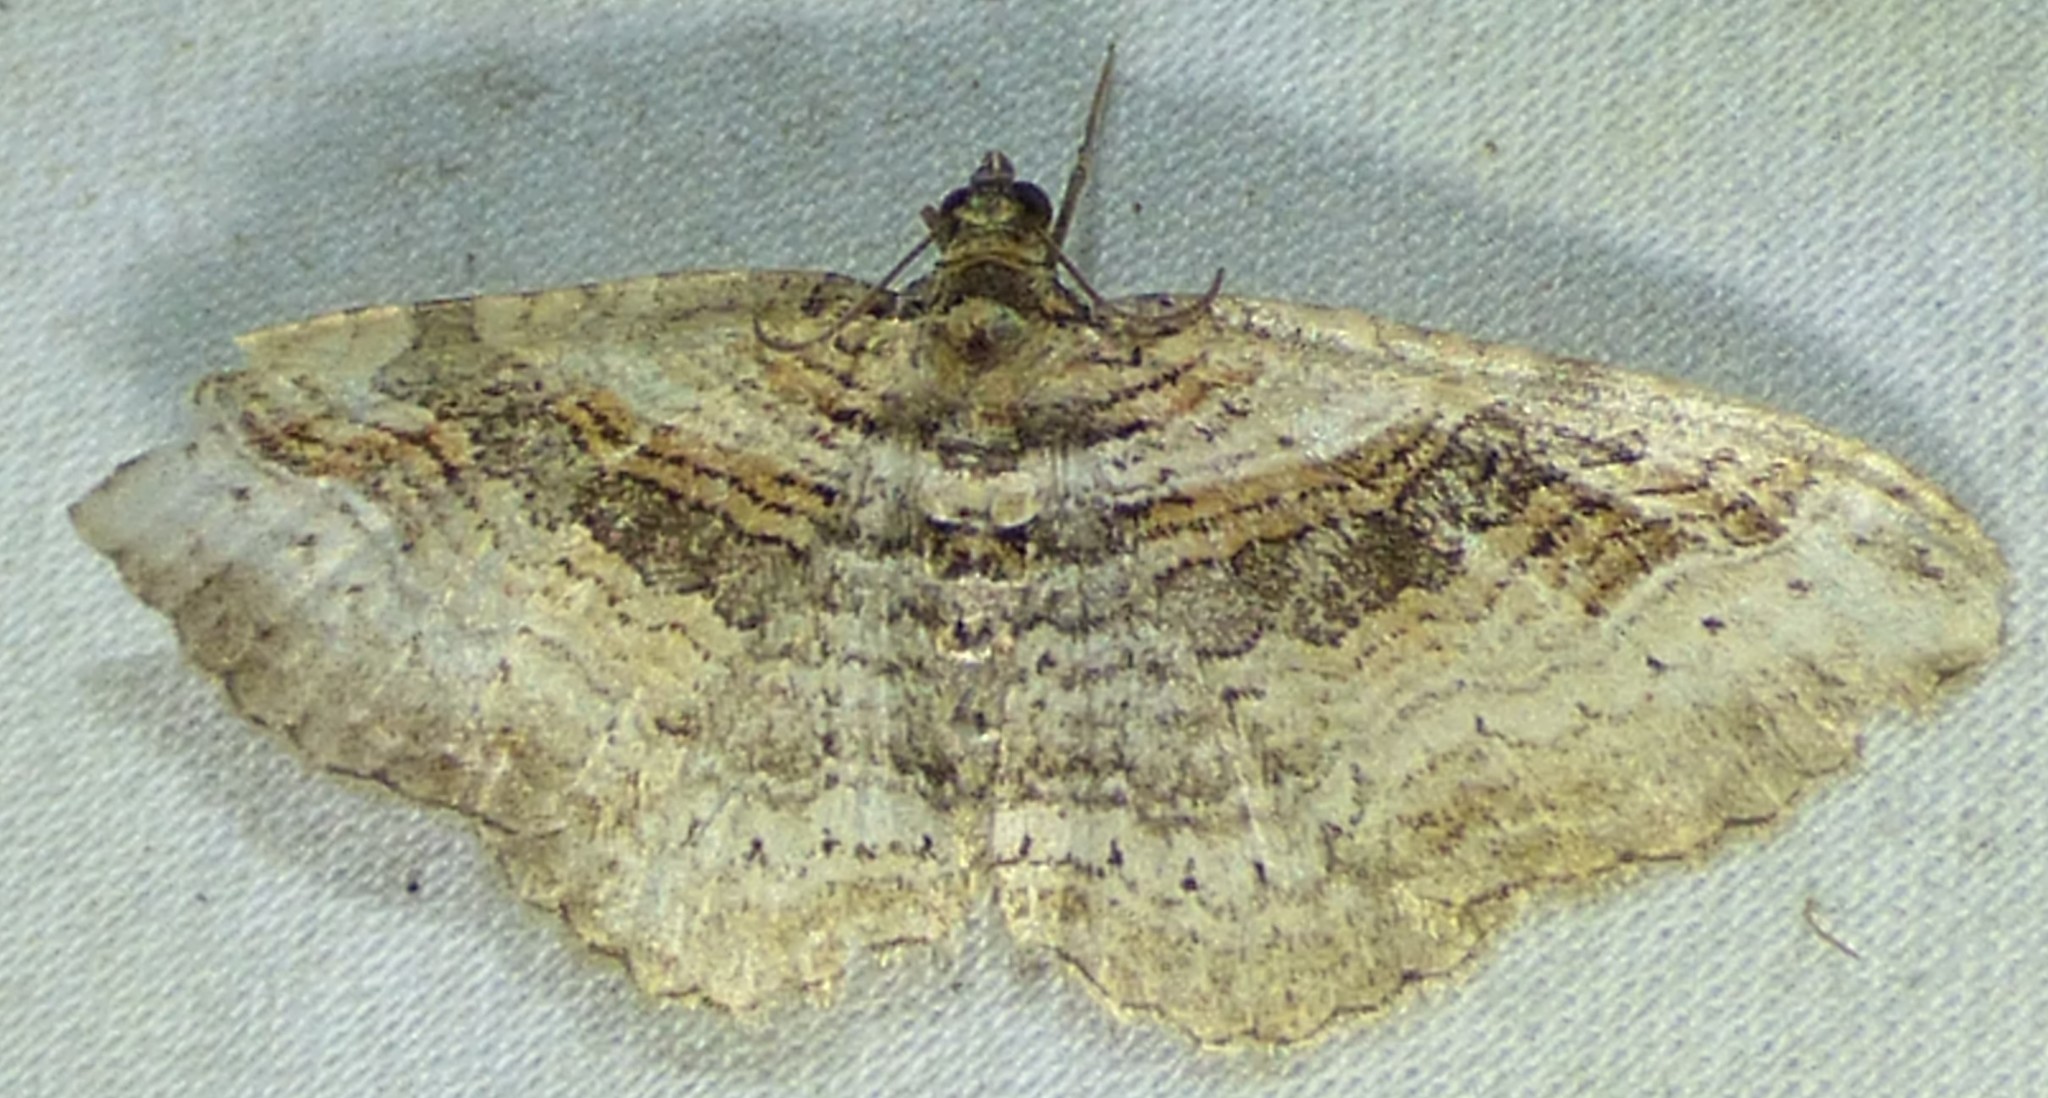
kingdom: Animalia
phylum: Arthropoda
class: Insecta
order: Lepidoptera
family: Geometridae
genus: Costaconvexa
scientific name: Costaconvexa centrostrigaria
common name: Bent-line carpet
